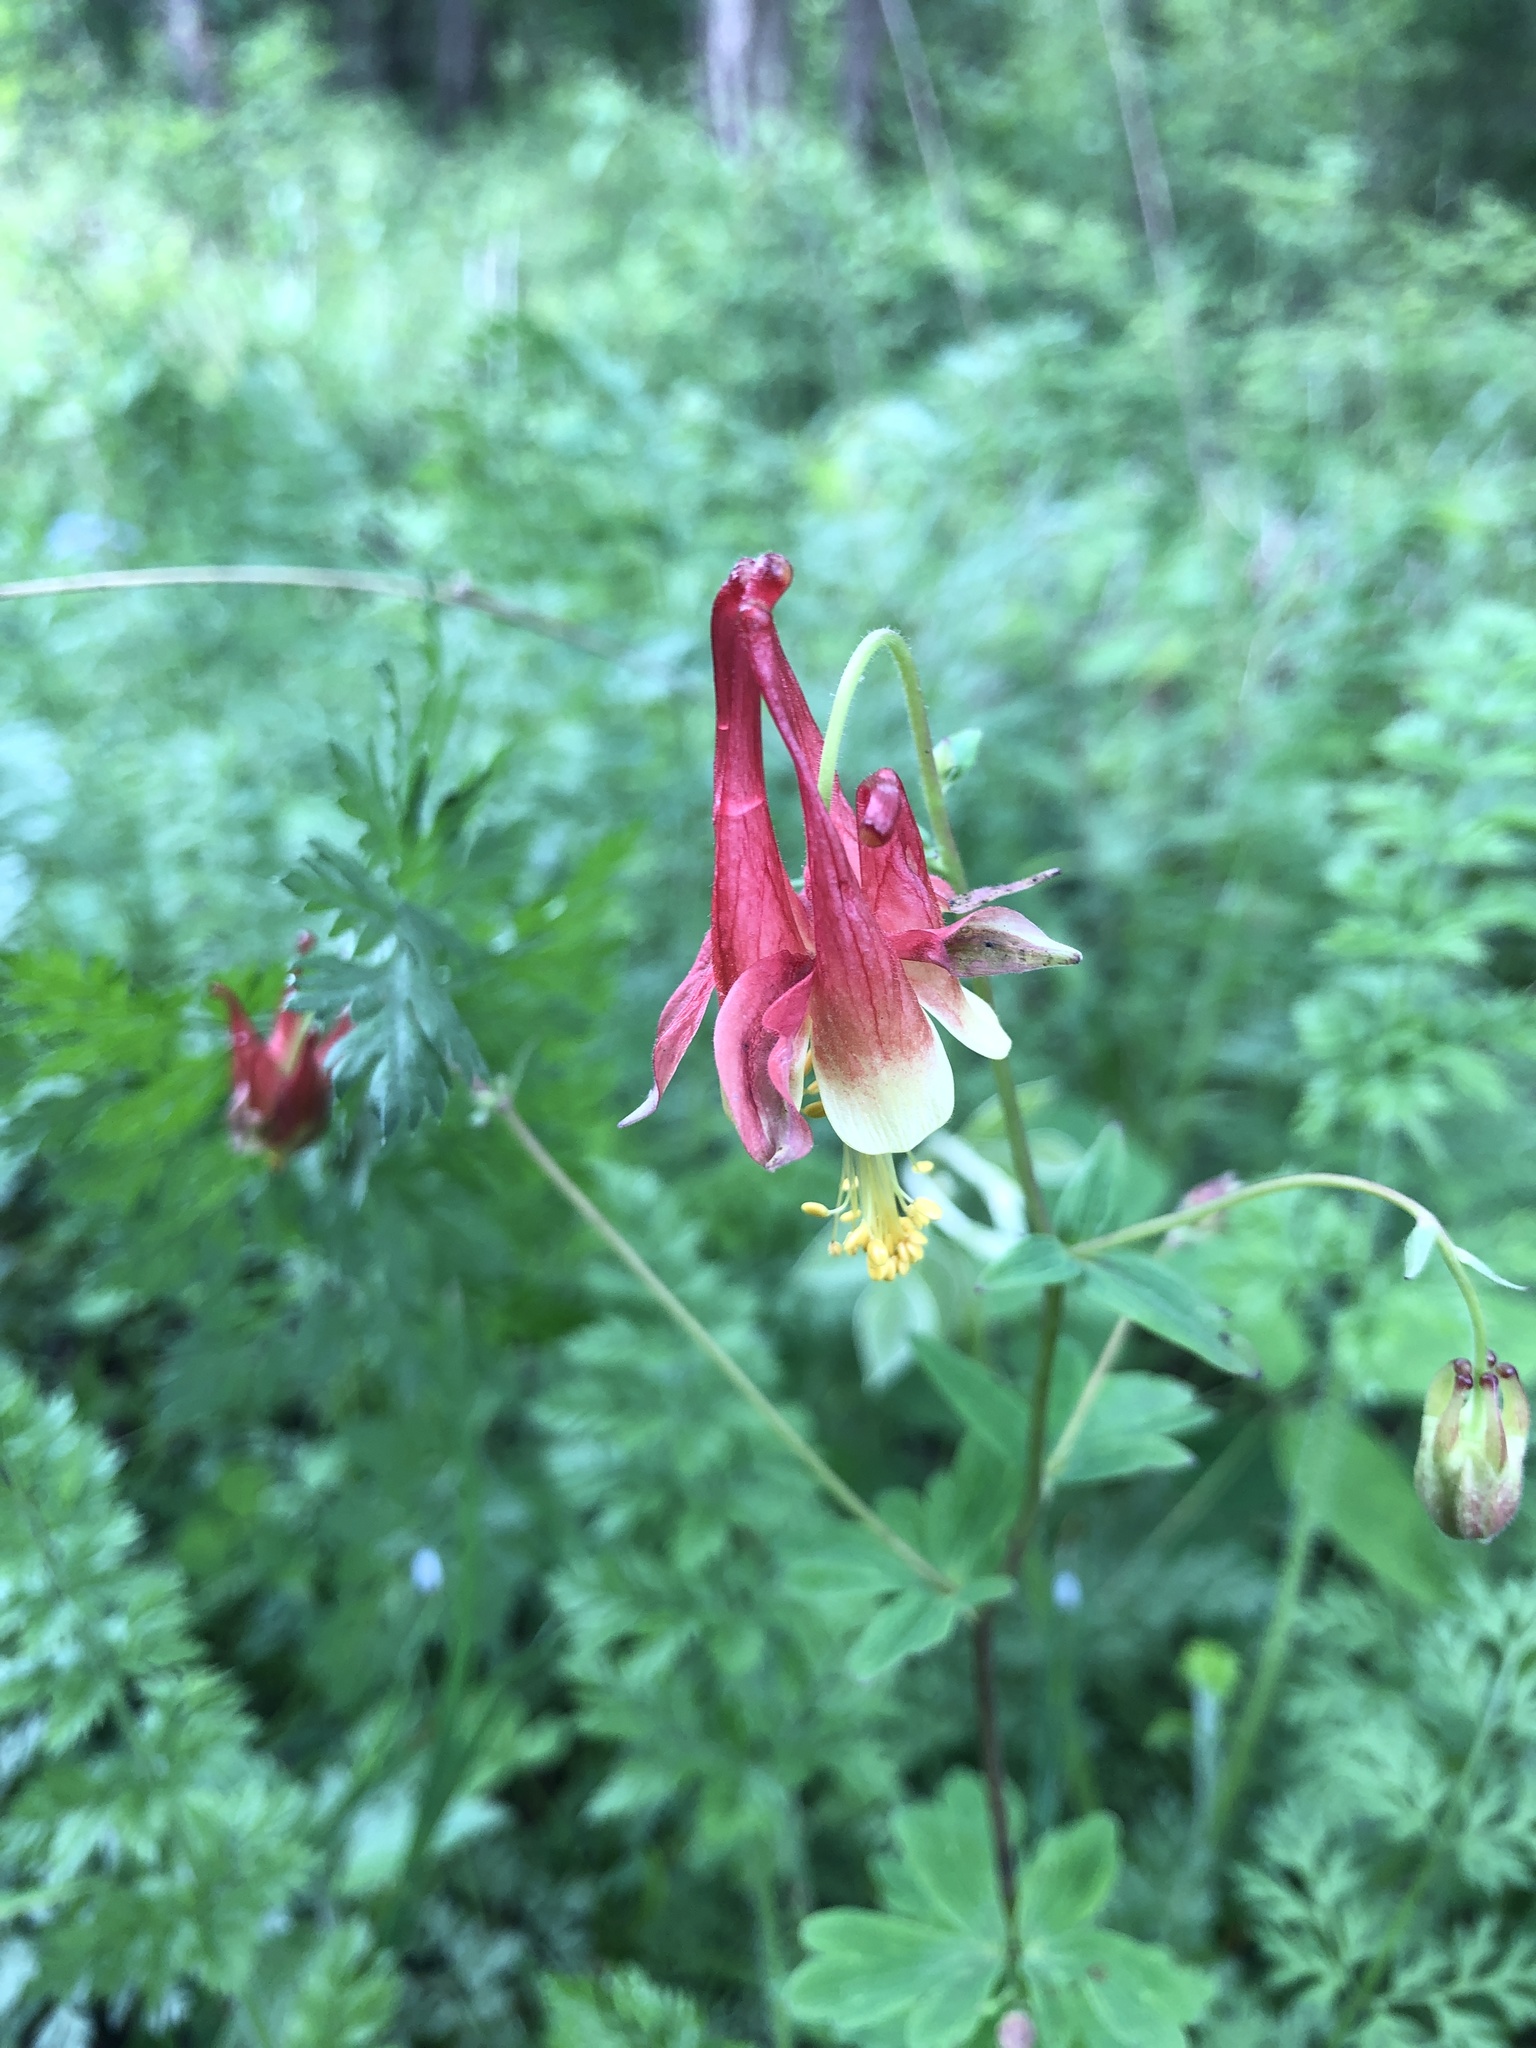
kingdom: Plantae
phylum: Tracheophyta
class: Magnoliopsida
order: Ranunculales
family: Ranunculaceae
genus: Aquilegia
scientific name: Aquilegia canadensis
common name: American columbine
